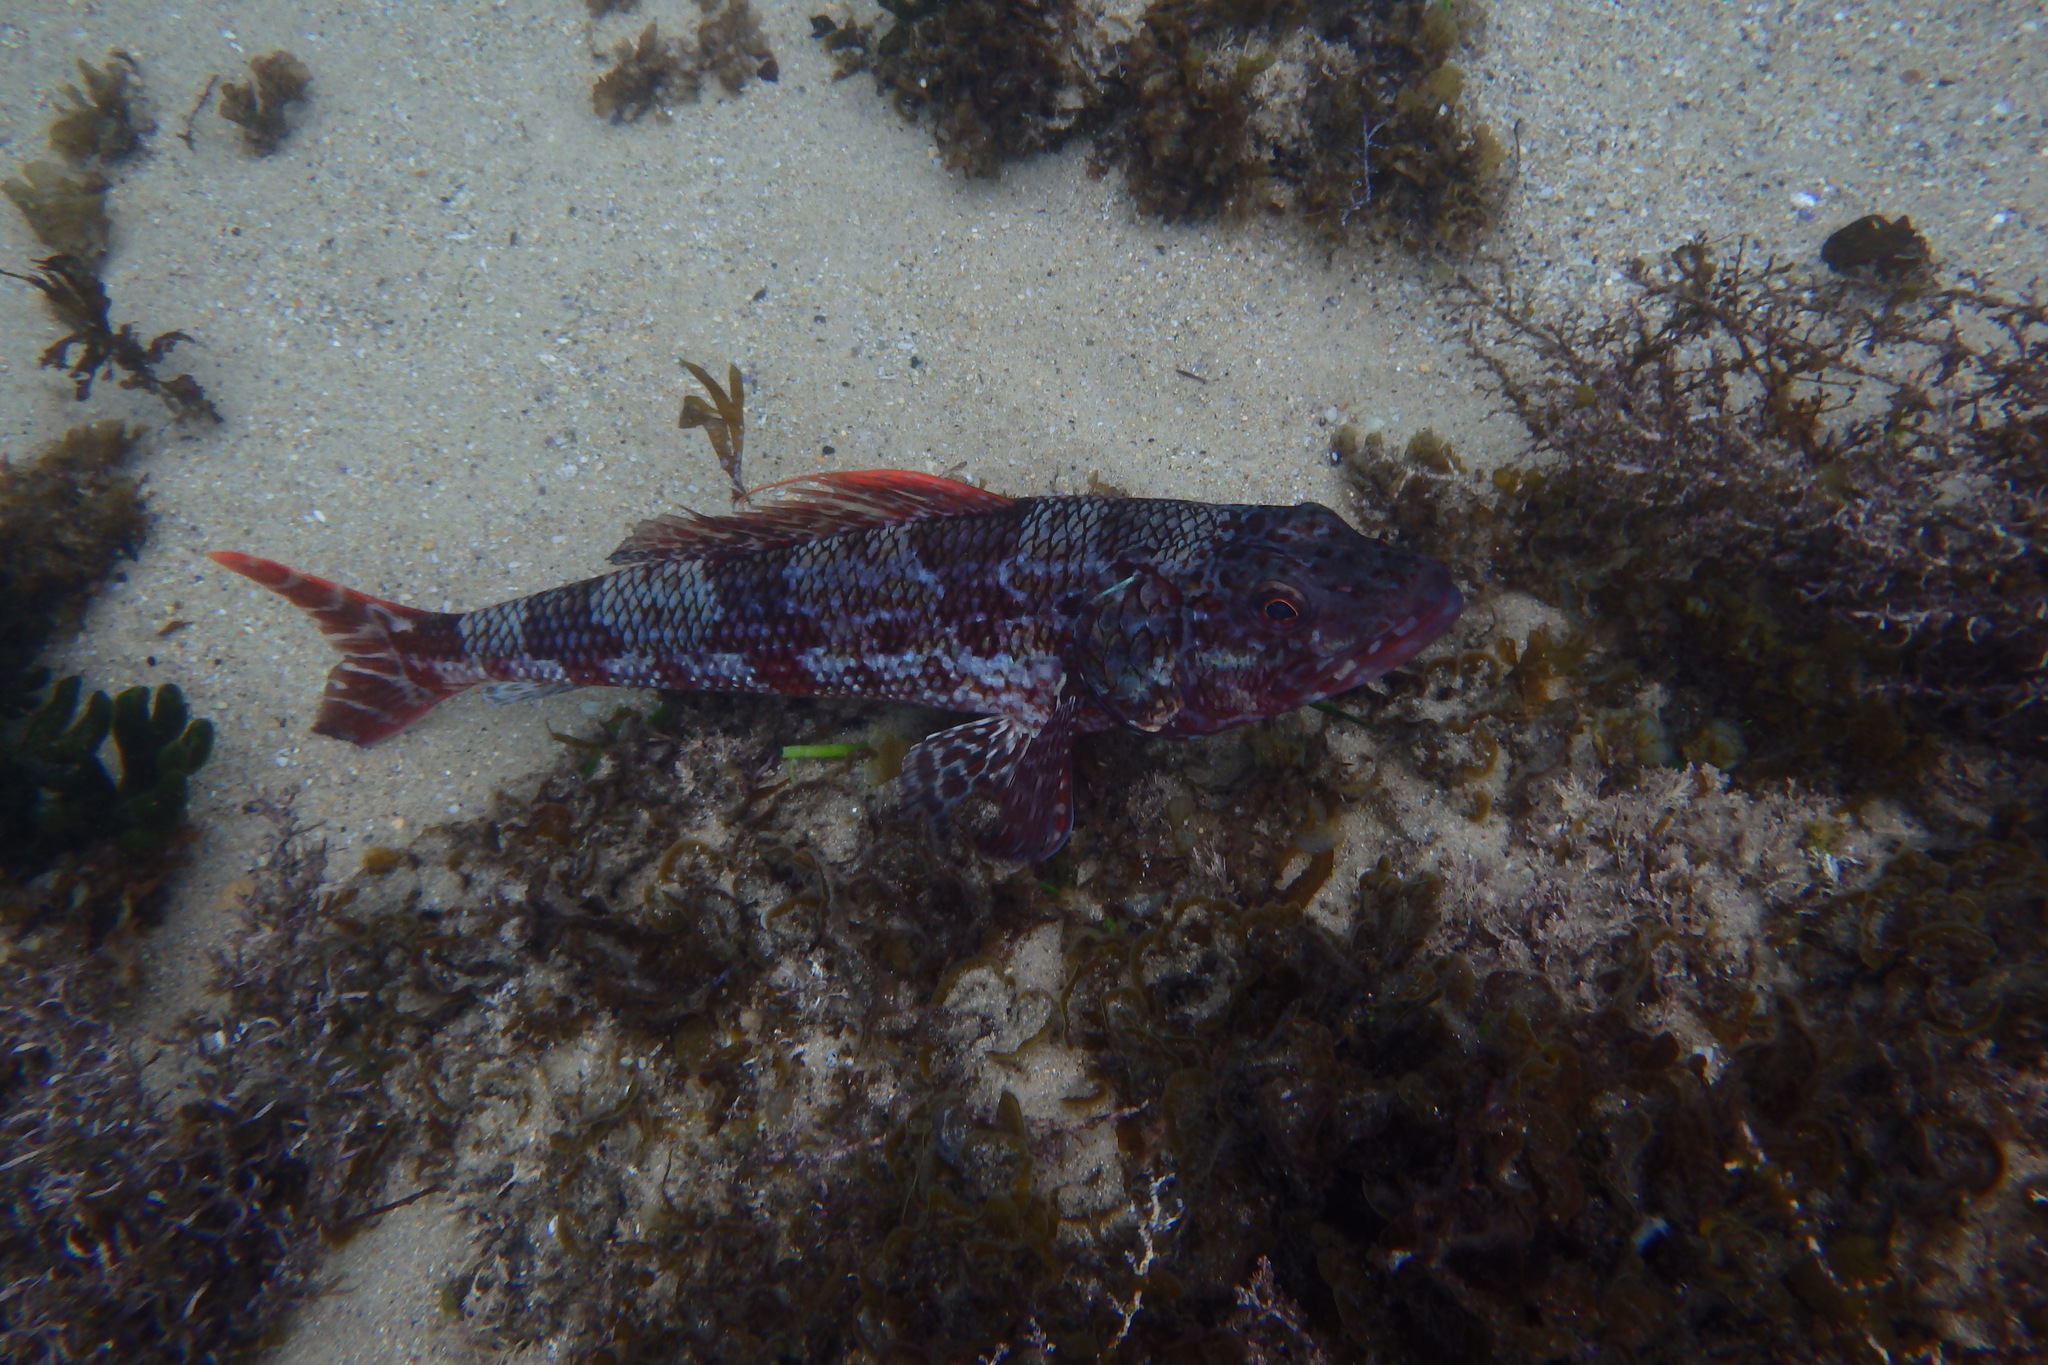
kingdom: Animalia
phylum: Chordata
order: Aulopiformes
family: Aulopidae
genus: Latropiscis
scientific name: Latropiscis purpurissatus
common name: Sergeant baker
